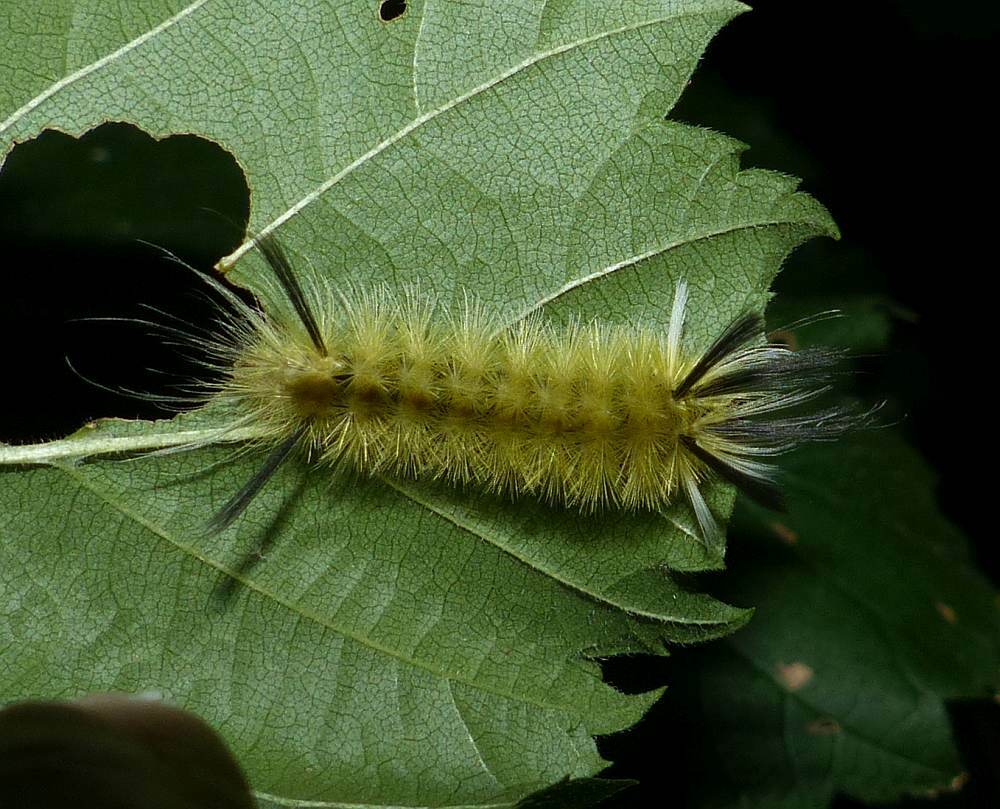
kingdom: Animalia
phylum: Arthropoda
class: Insecta
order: Lepidoptera
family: Erebidae
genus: Halysidota
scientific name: Halysidota tessellaris
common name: Banded tussock moth
